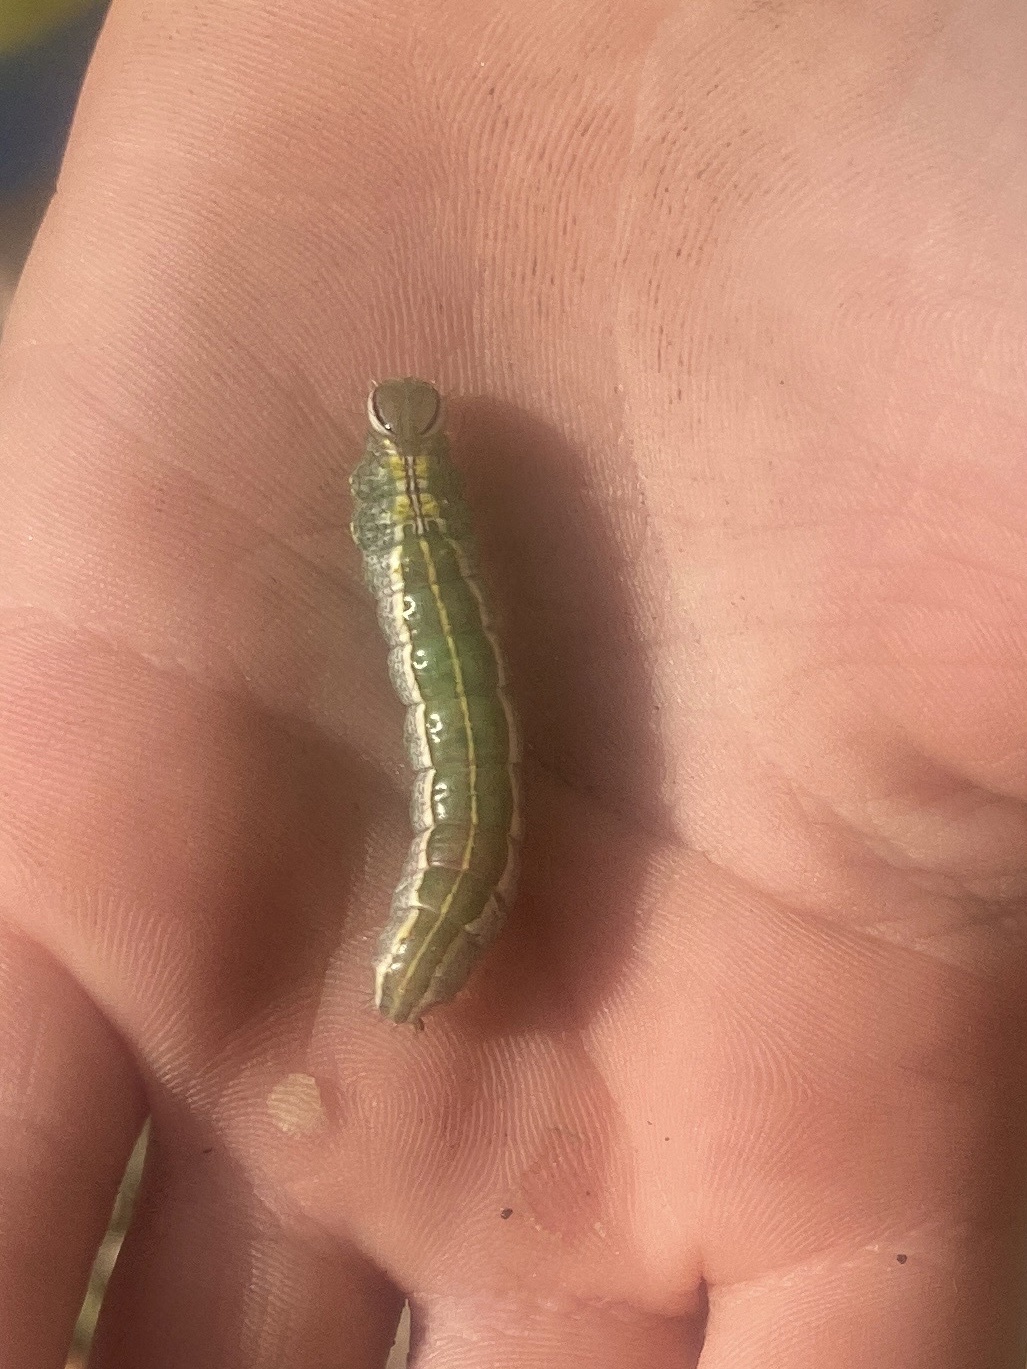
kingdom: Animalia
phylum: Arthropoda
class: Insecta
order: Lepidoptera
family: Notodontidae
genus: Lochmaeus
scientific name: Lochmaeus manteo
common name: Variable oakleaf caterpillar moth
